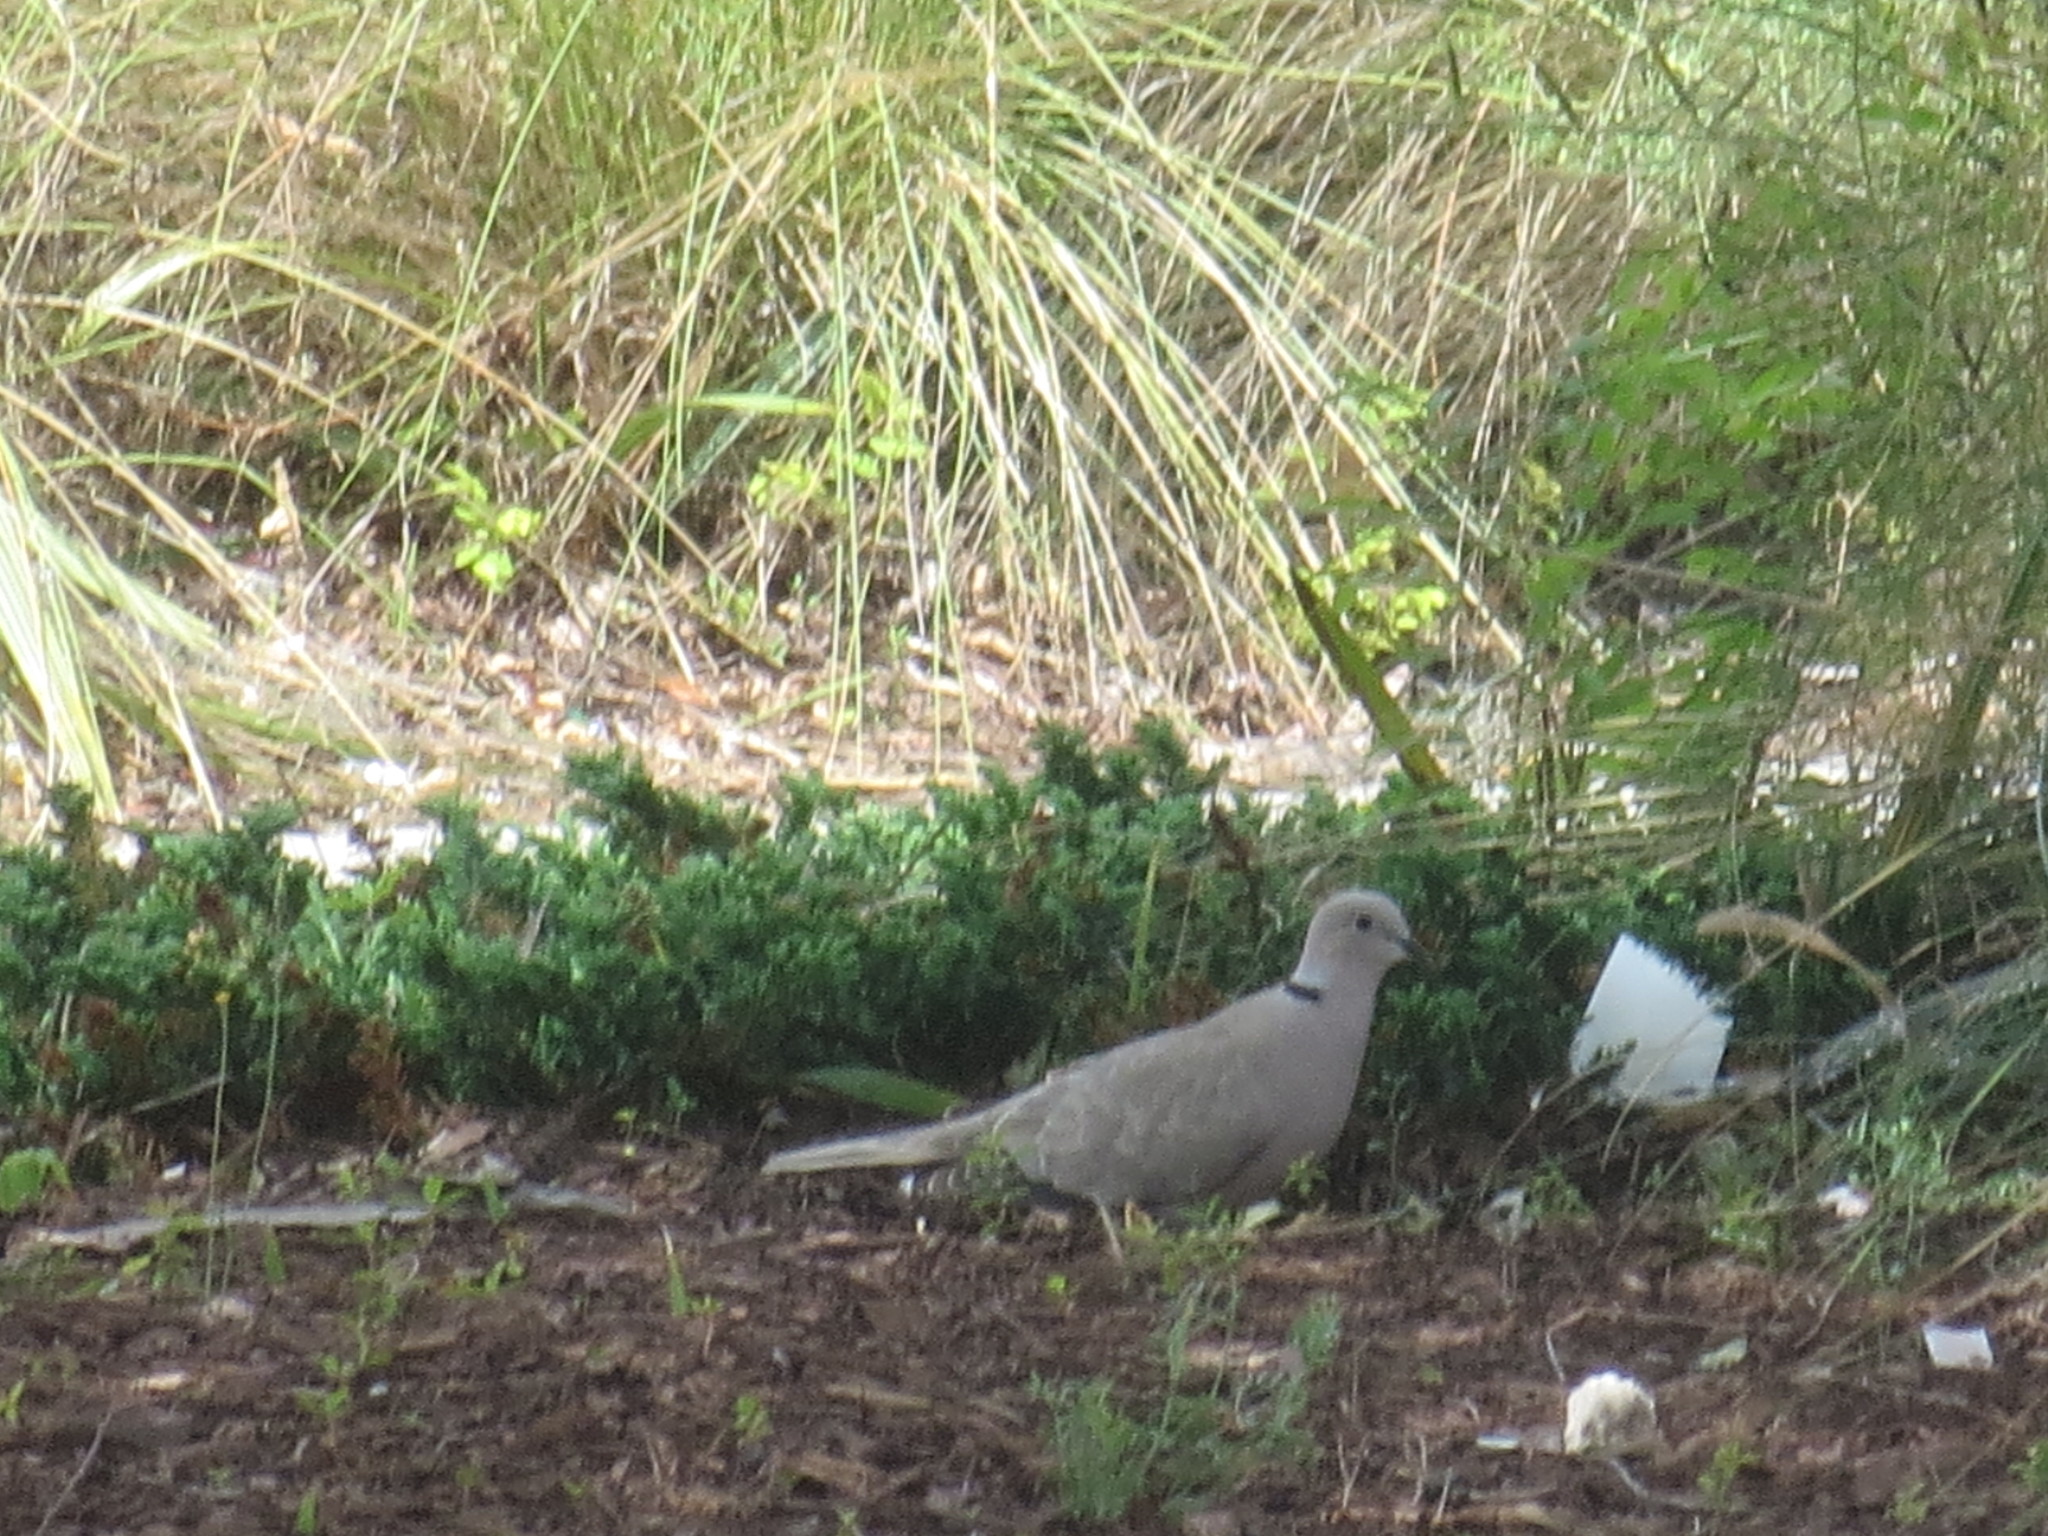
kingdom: Animalia
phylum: Chordata
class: Aves
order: Columbiformes
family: Columbidae
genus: Streptopelia
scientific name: Streptopelia decaocto
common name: Eurasian collared dove
